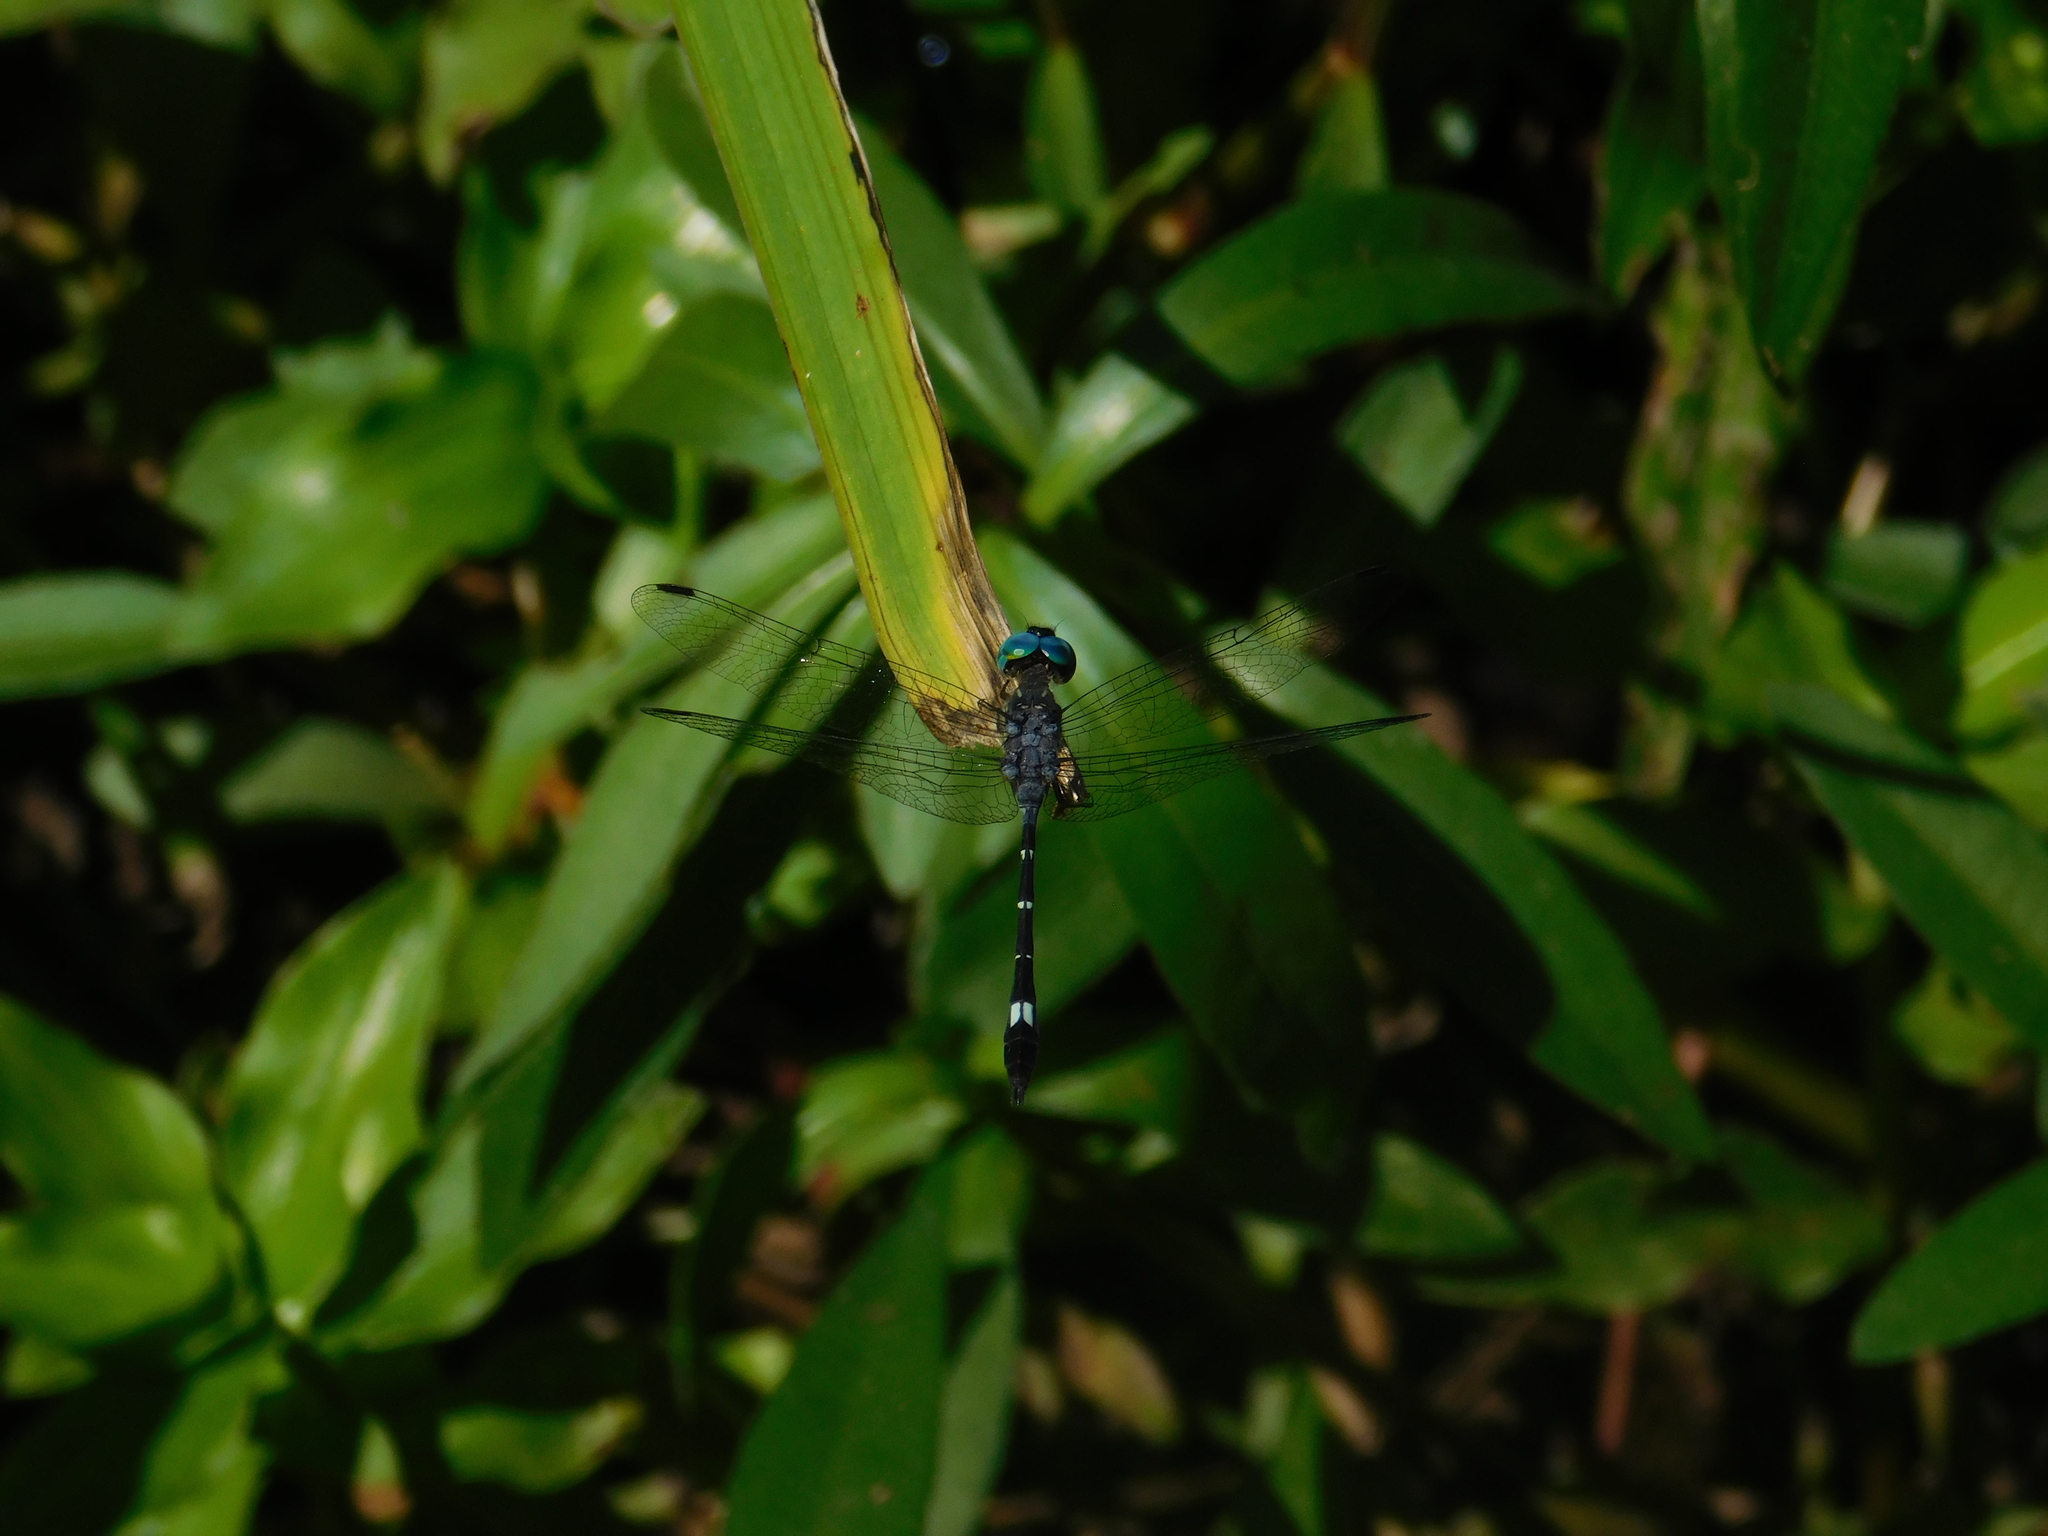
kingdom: Animalia
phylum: Arthropoda
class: Insecta
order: Odonata
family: Libellulidae
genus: Micrathyria
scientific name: Micrathyria hypodidyma
